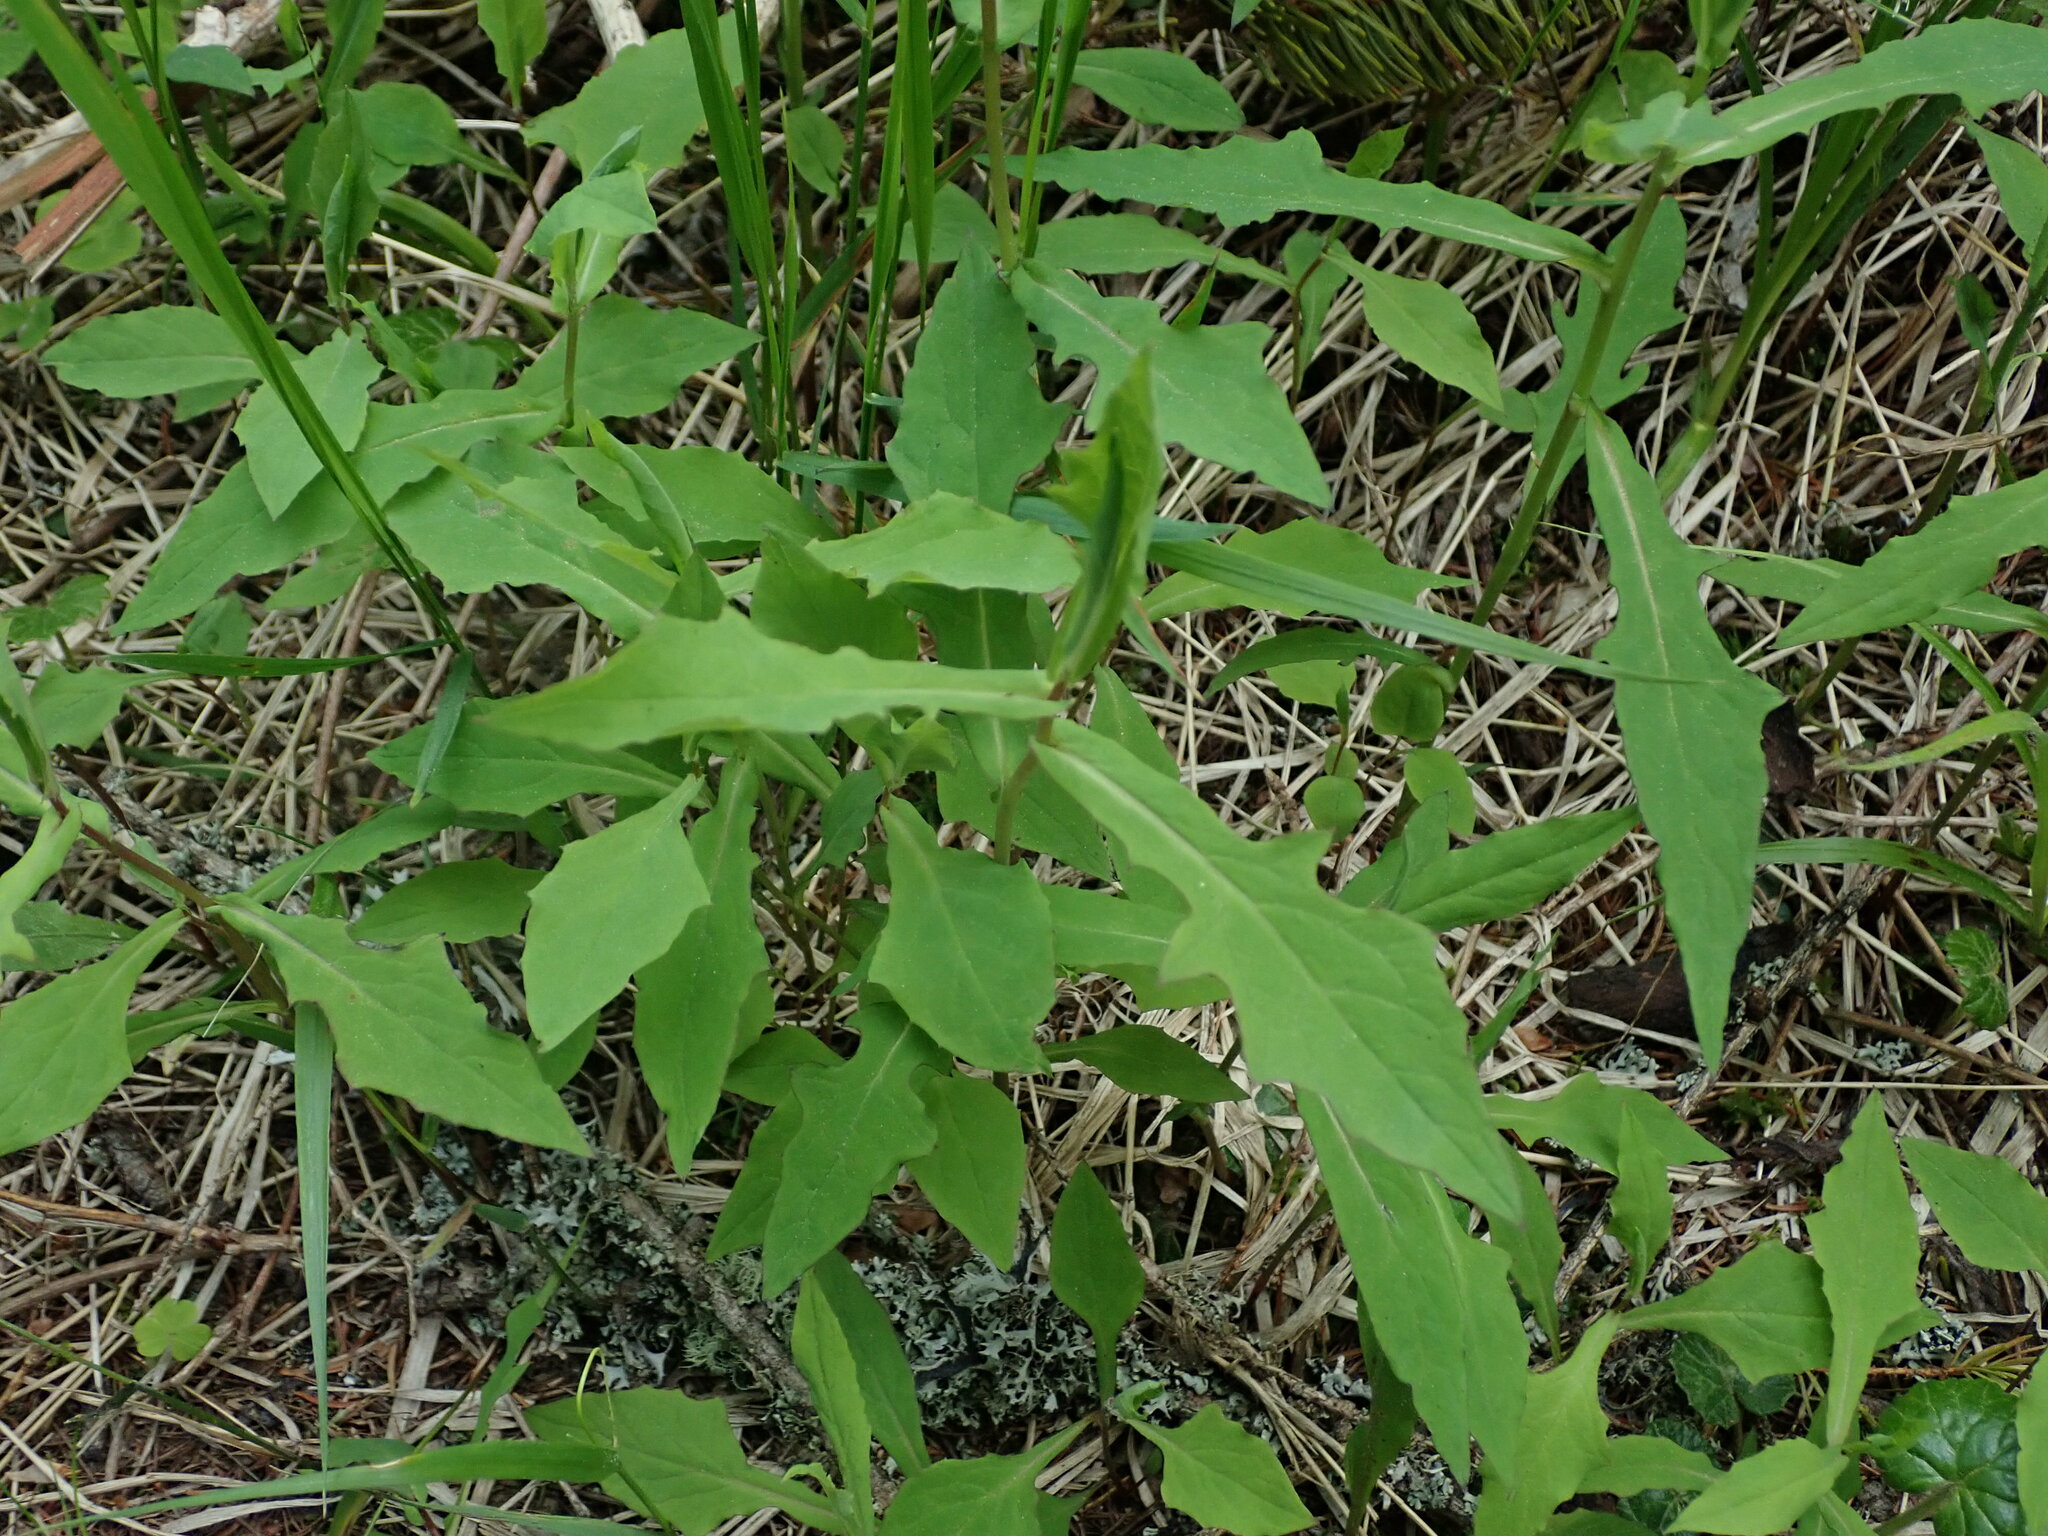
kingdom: Plantae
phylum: Tracheophyta
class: Magnoliopsida
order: Asterales
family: Asteraceae
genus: Prenanthes
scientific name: Prenanthes purpurea
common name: Purple lettuce
